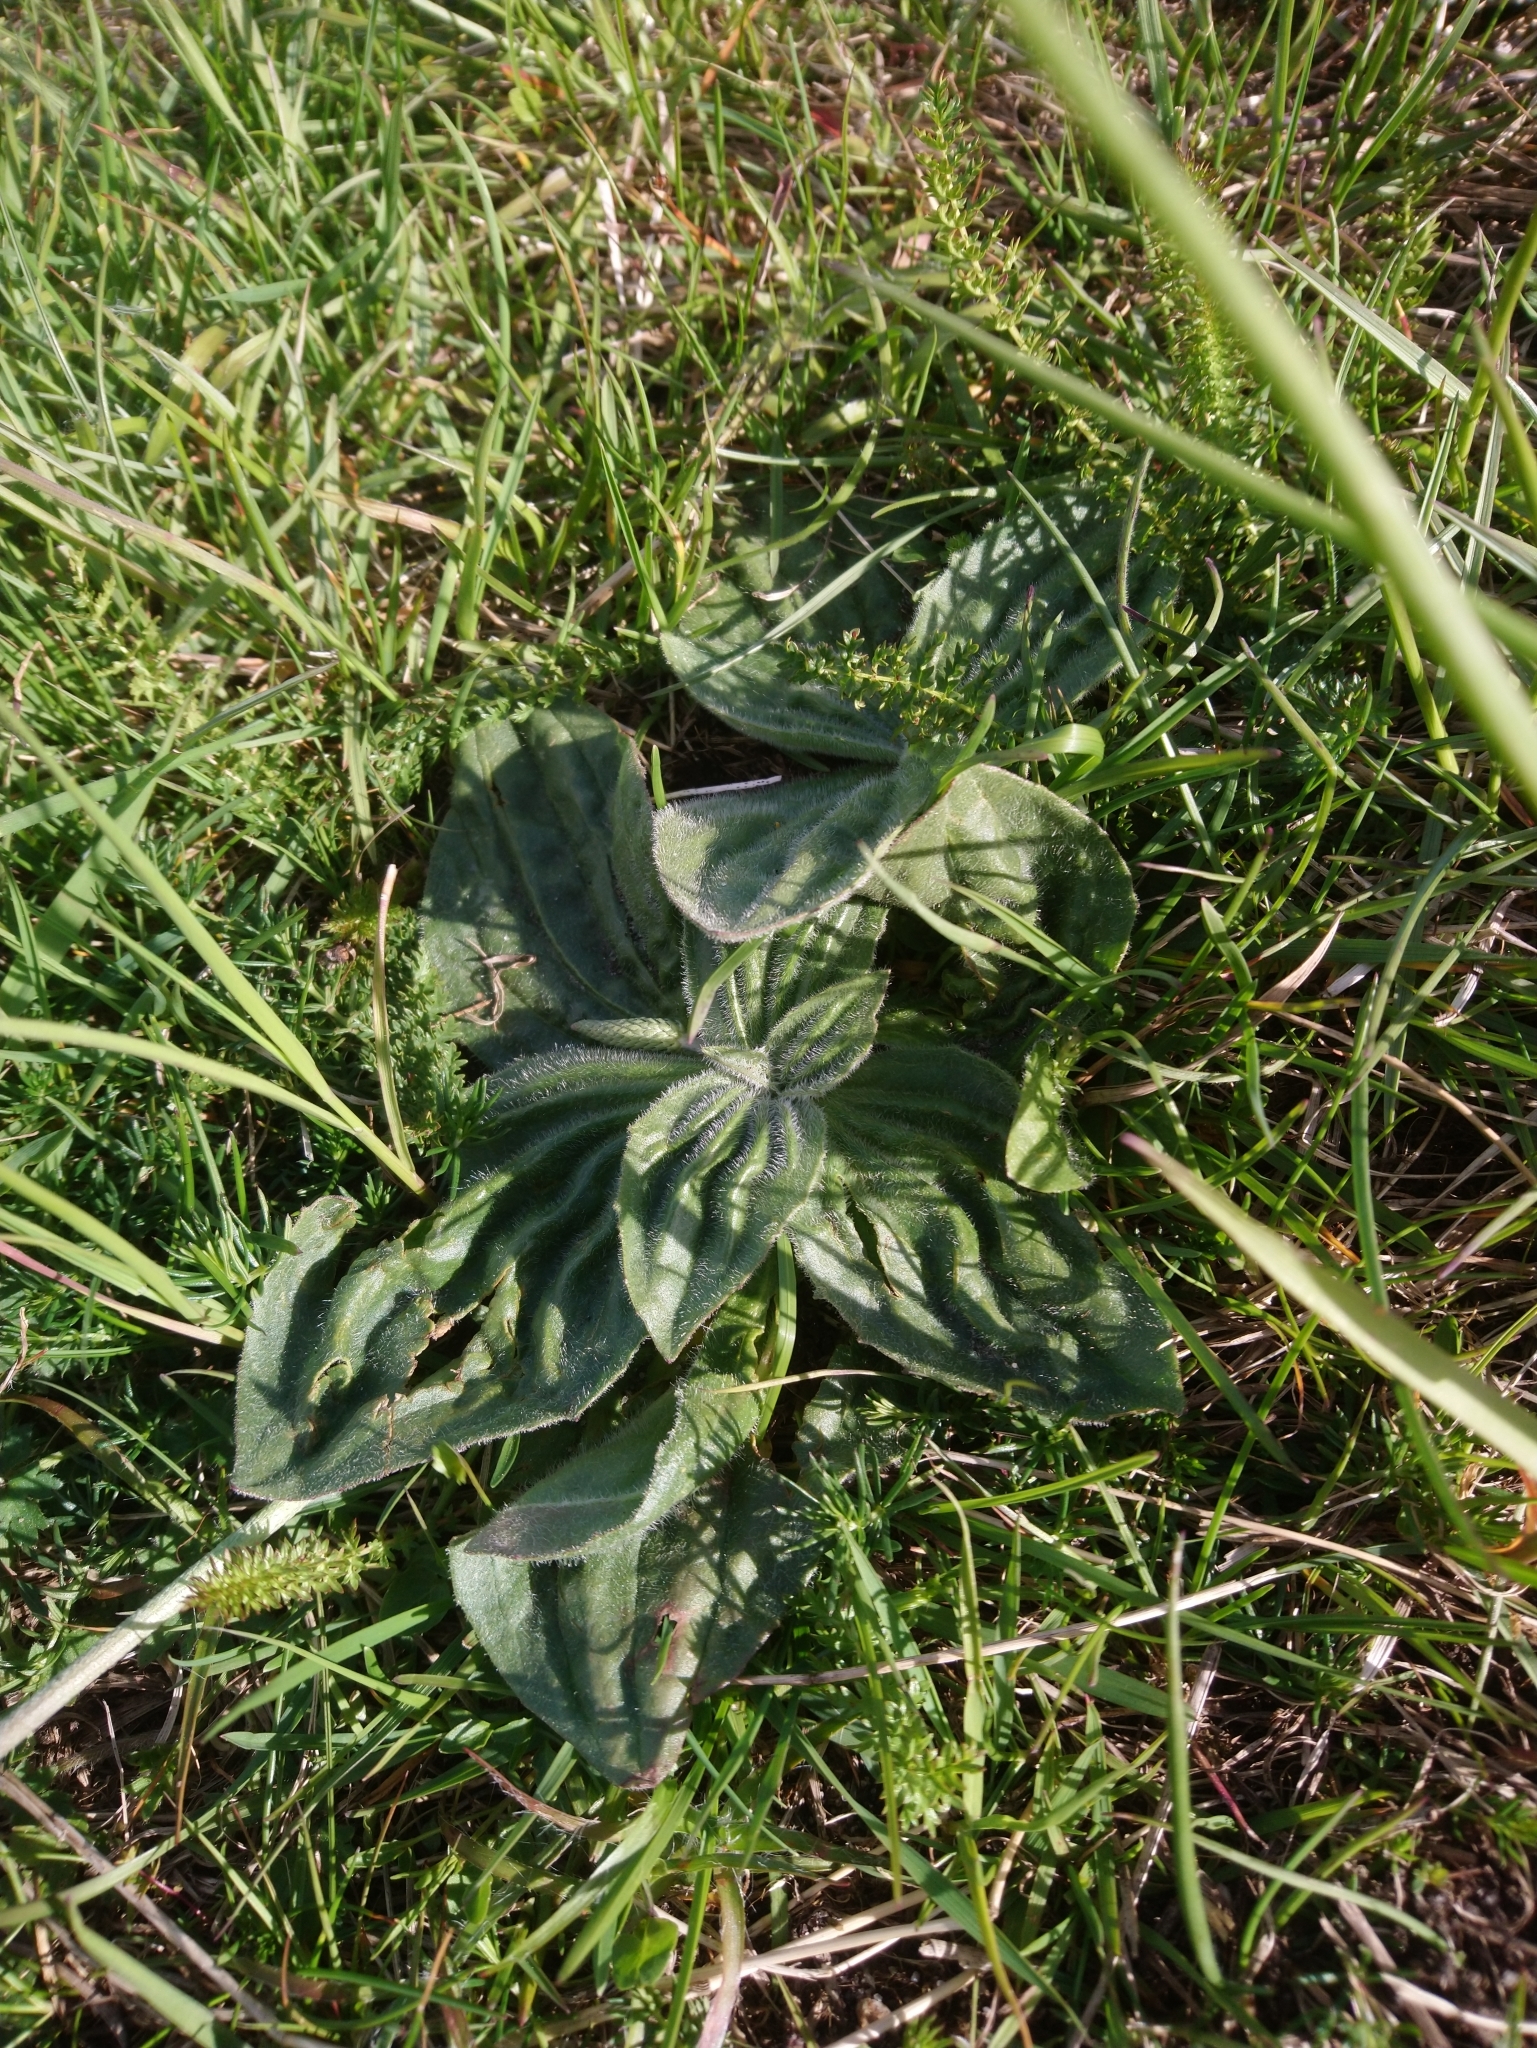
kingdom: Plantae
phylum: Tracheophyta
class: Magnoliopsida
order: Lamiales
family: Plantaginaceae
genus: Plantago
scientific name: Plantago media
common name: Hoary plantain
